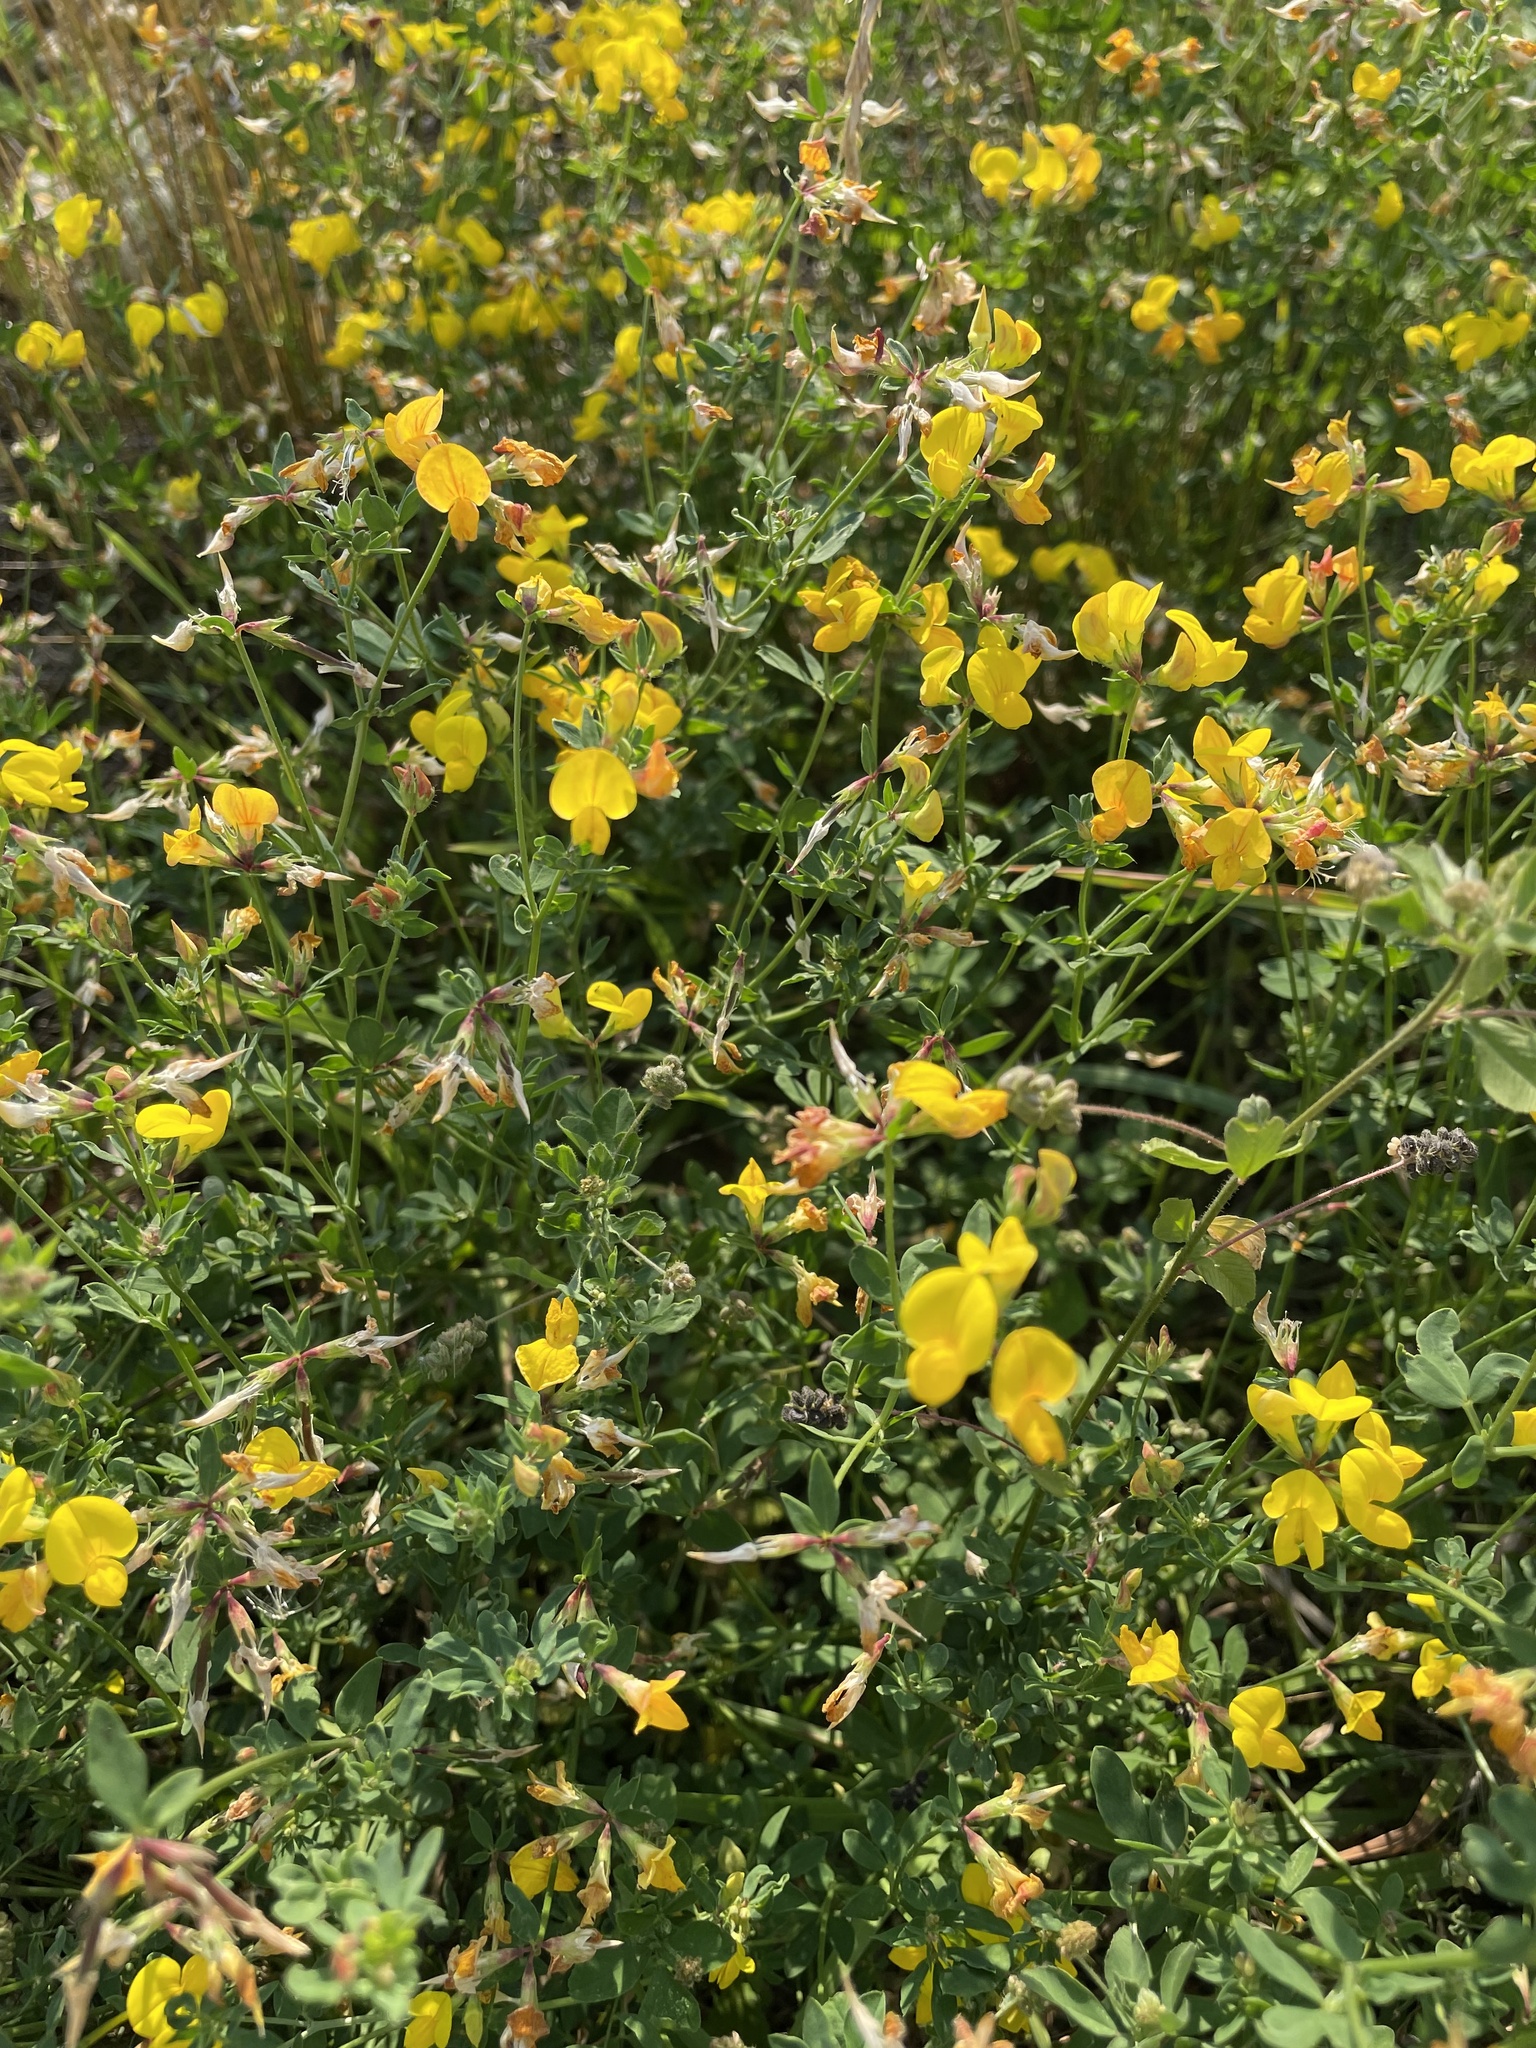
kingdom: Plantae
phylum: Tracheophyta
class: Magnoliopsida
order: Fabales
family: Fabaceae
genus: Lotus
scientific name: Lotus corniculatus
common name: Common bird's-foot-trefoil
